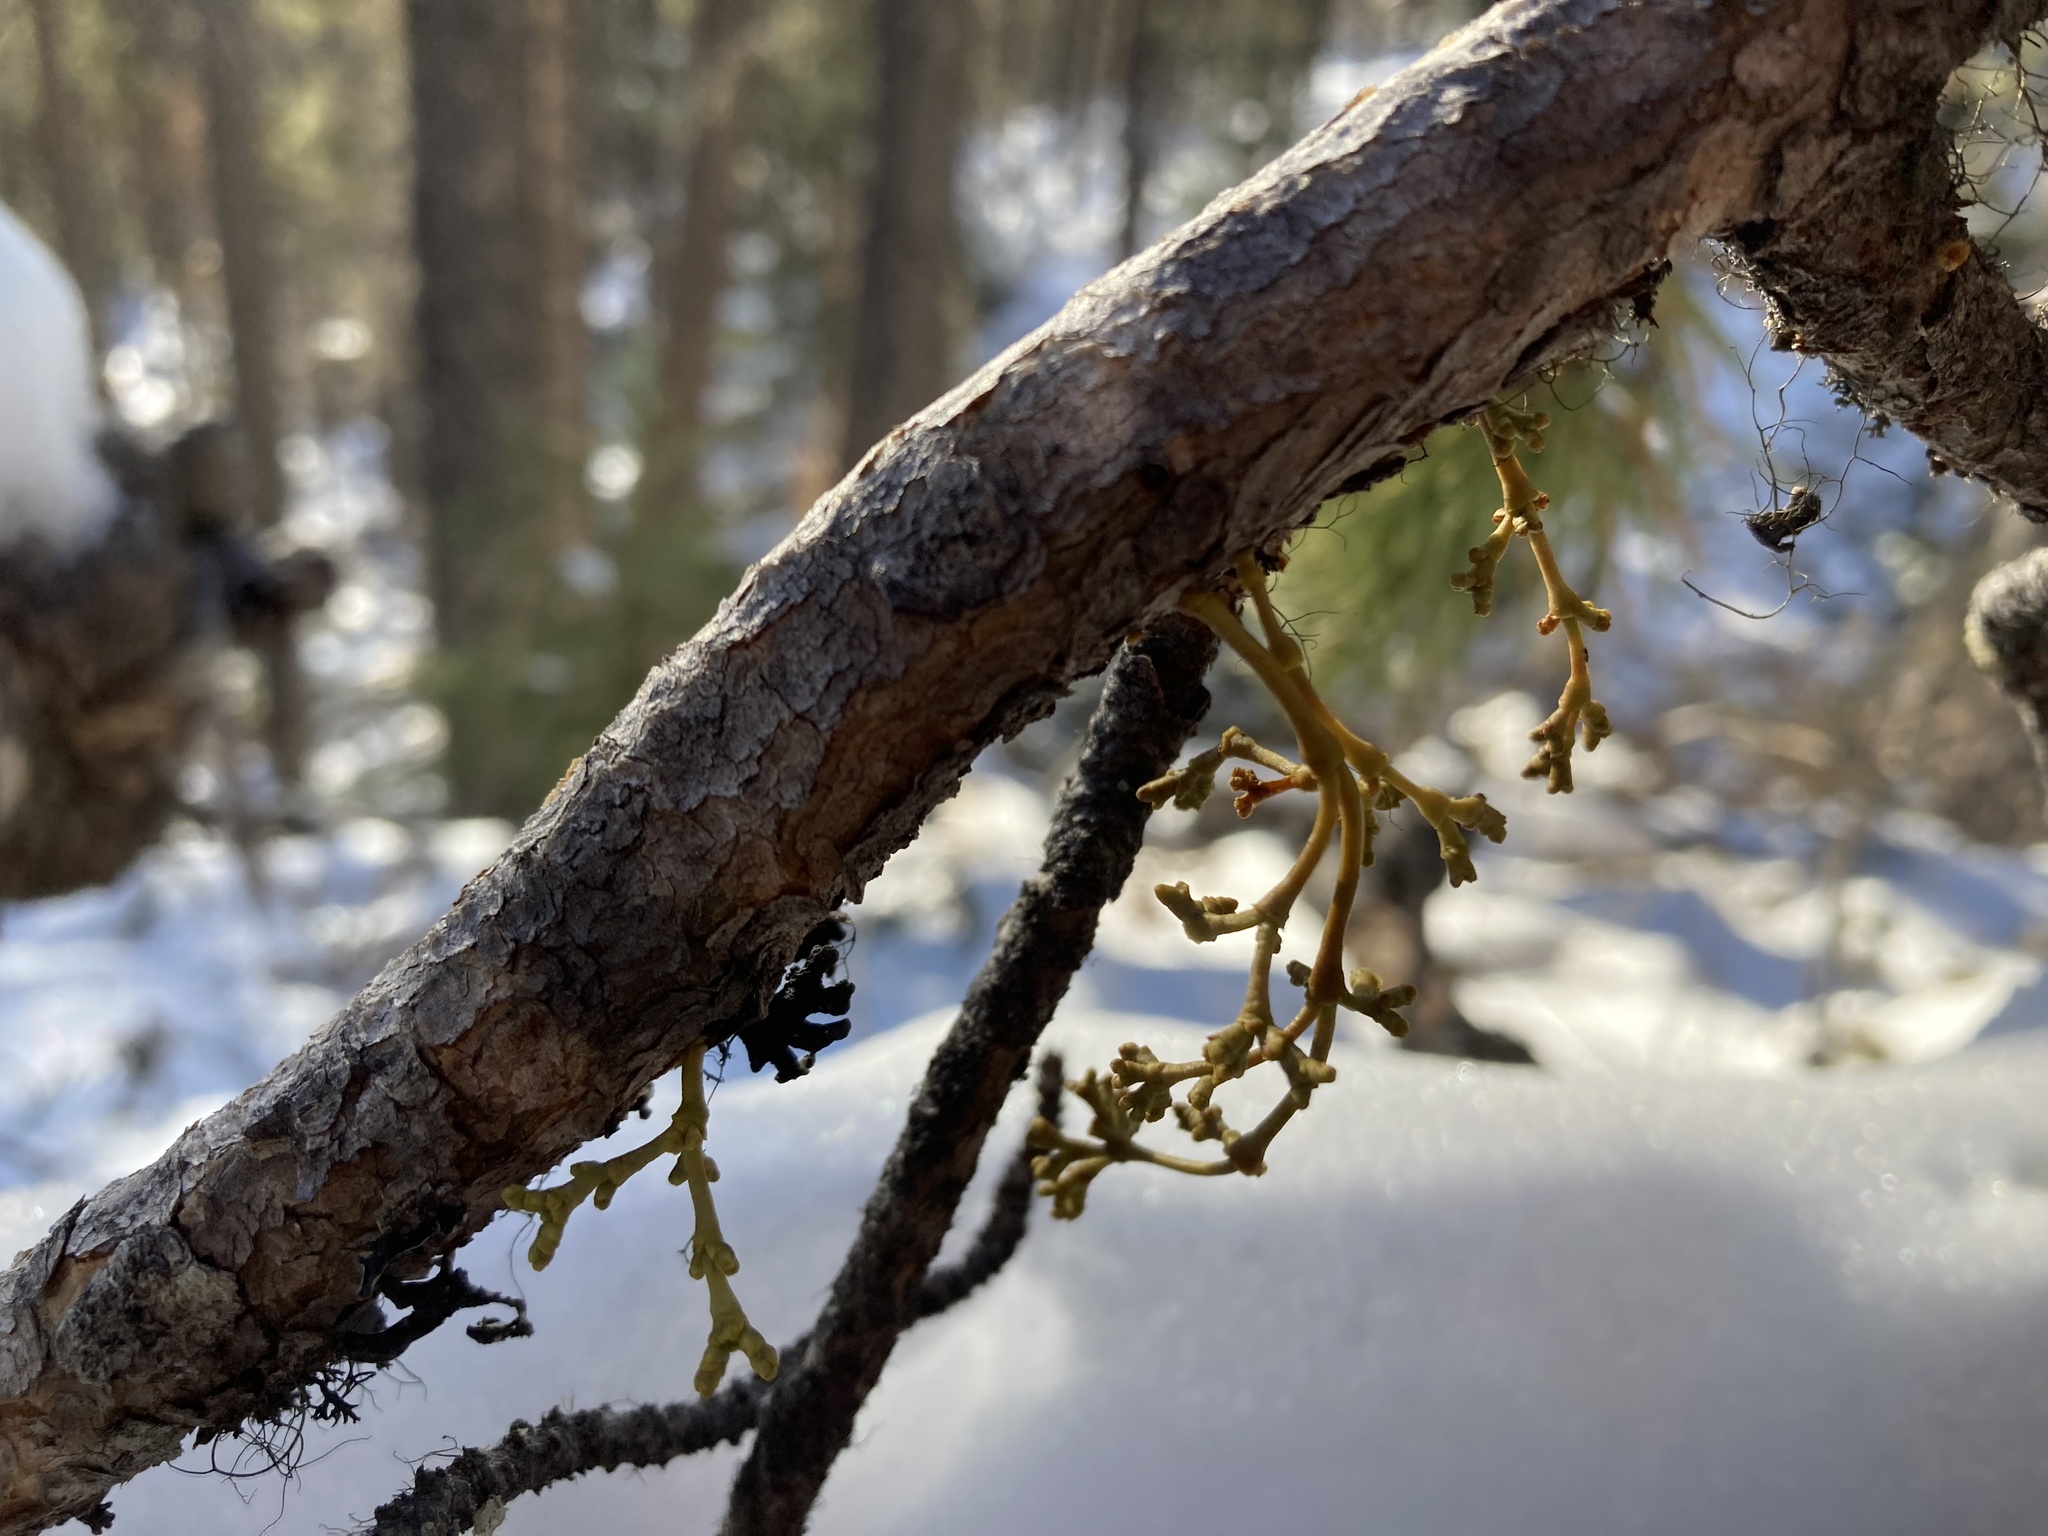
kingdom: Plantae
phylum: Tracheophyta
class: Magnoliopsida
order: Santalales
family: Viscaceae
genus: Arceuthobium
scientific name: Arceuthobium americanum
